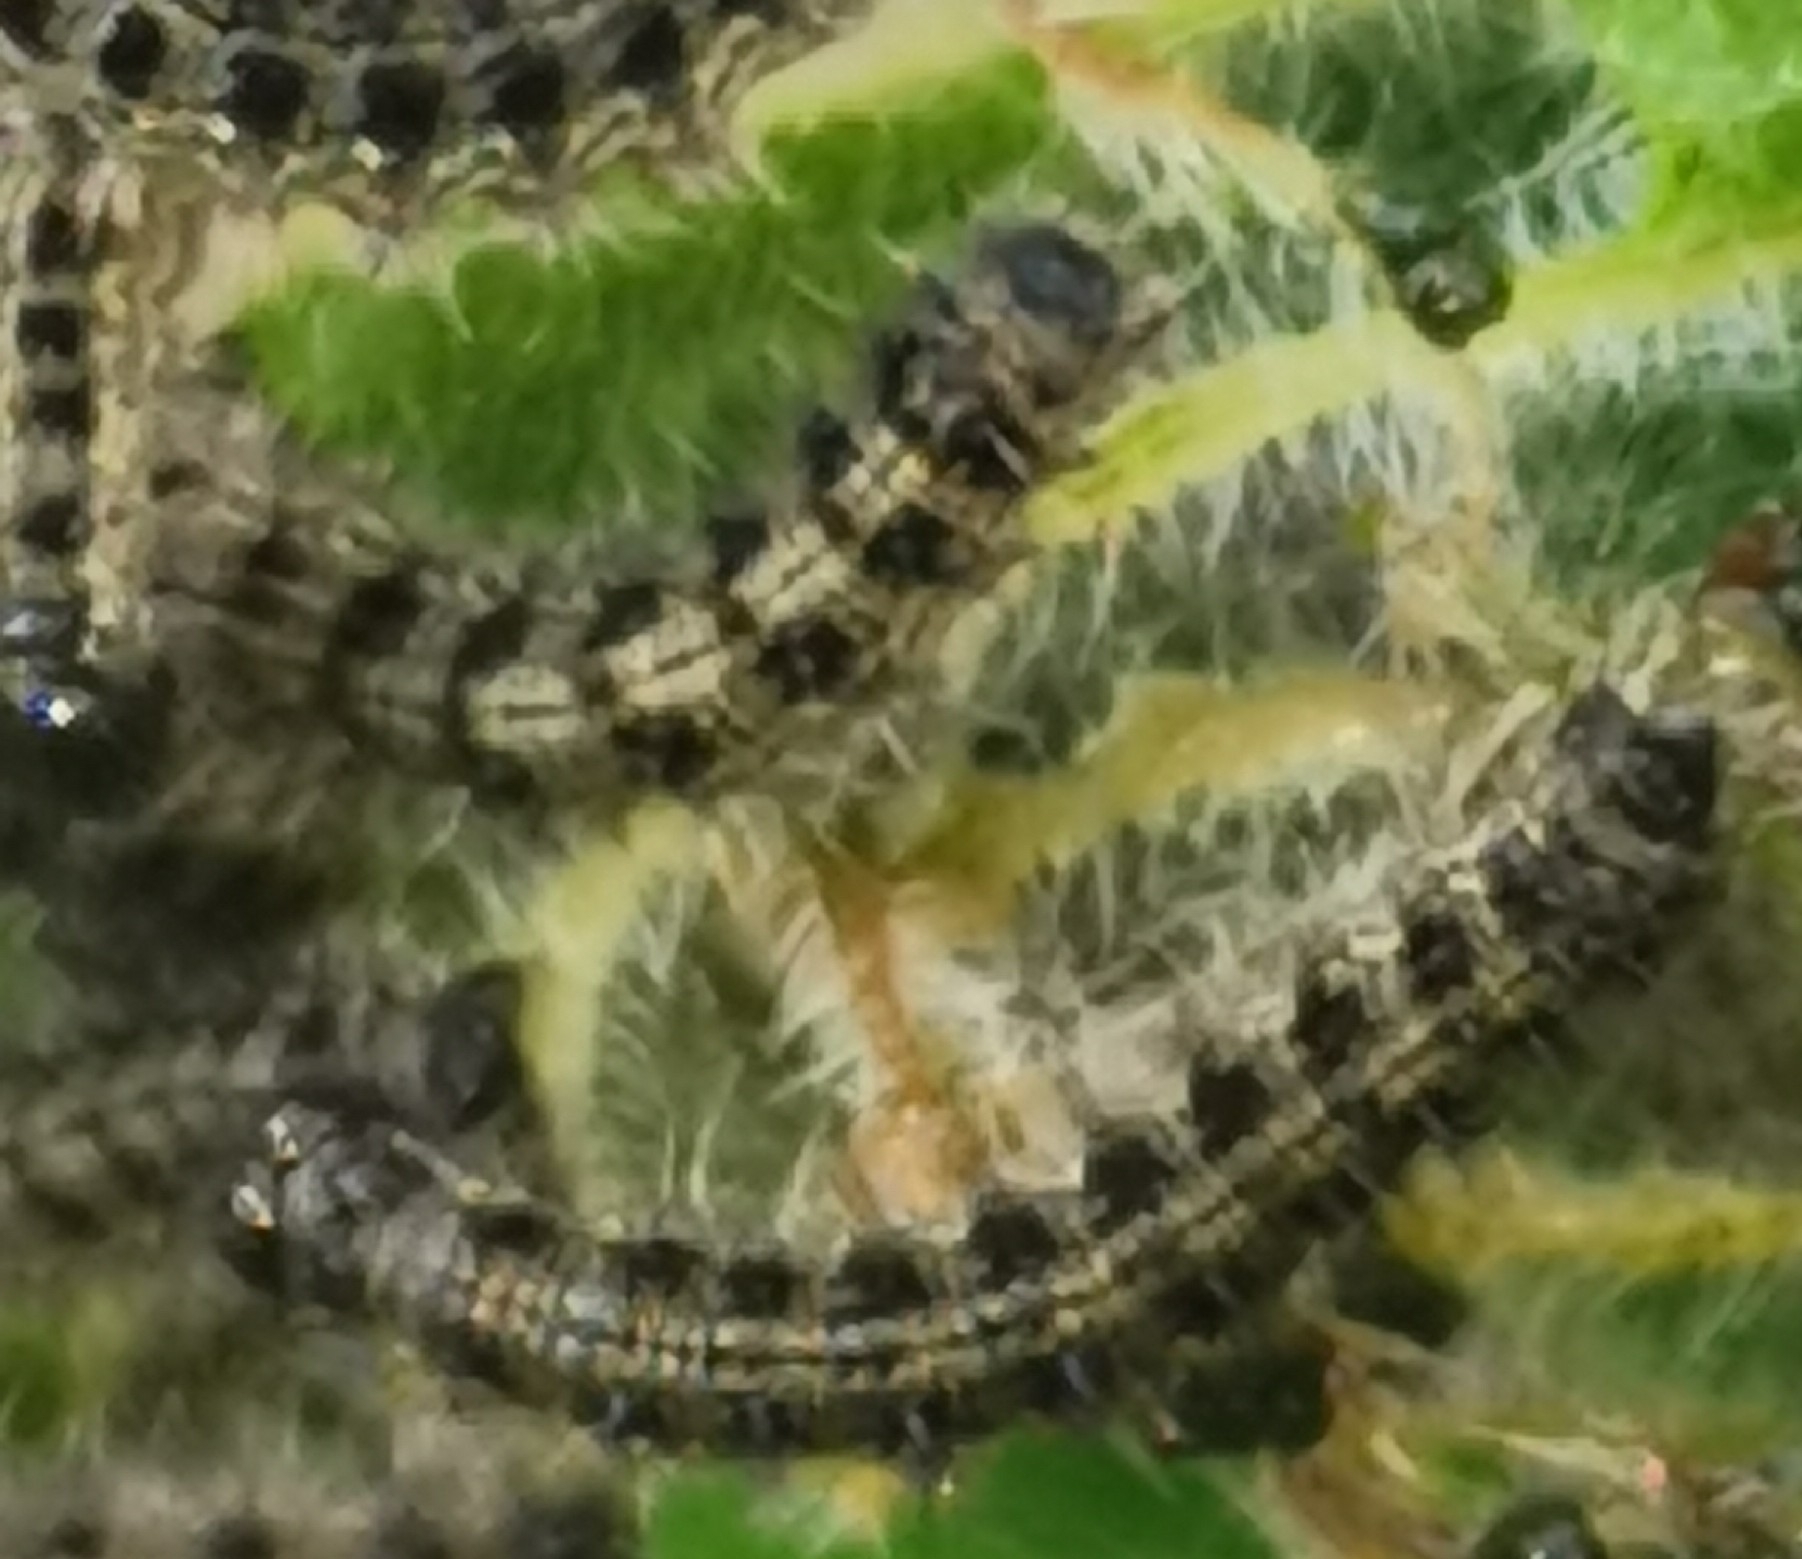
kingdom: Animalia
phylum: Arthropoda
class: Insecta
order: Lepidoptera
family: Nymphalidae
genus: Aglais
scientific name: Aglais urticae
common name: Small tortoiseshell
